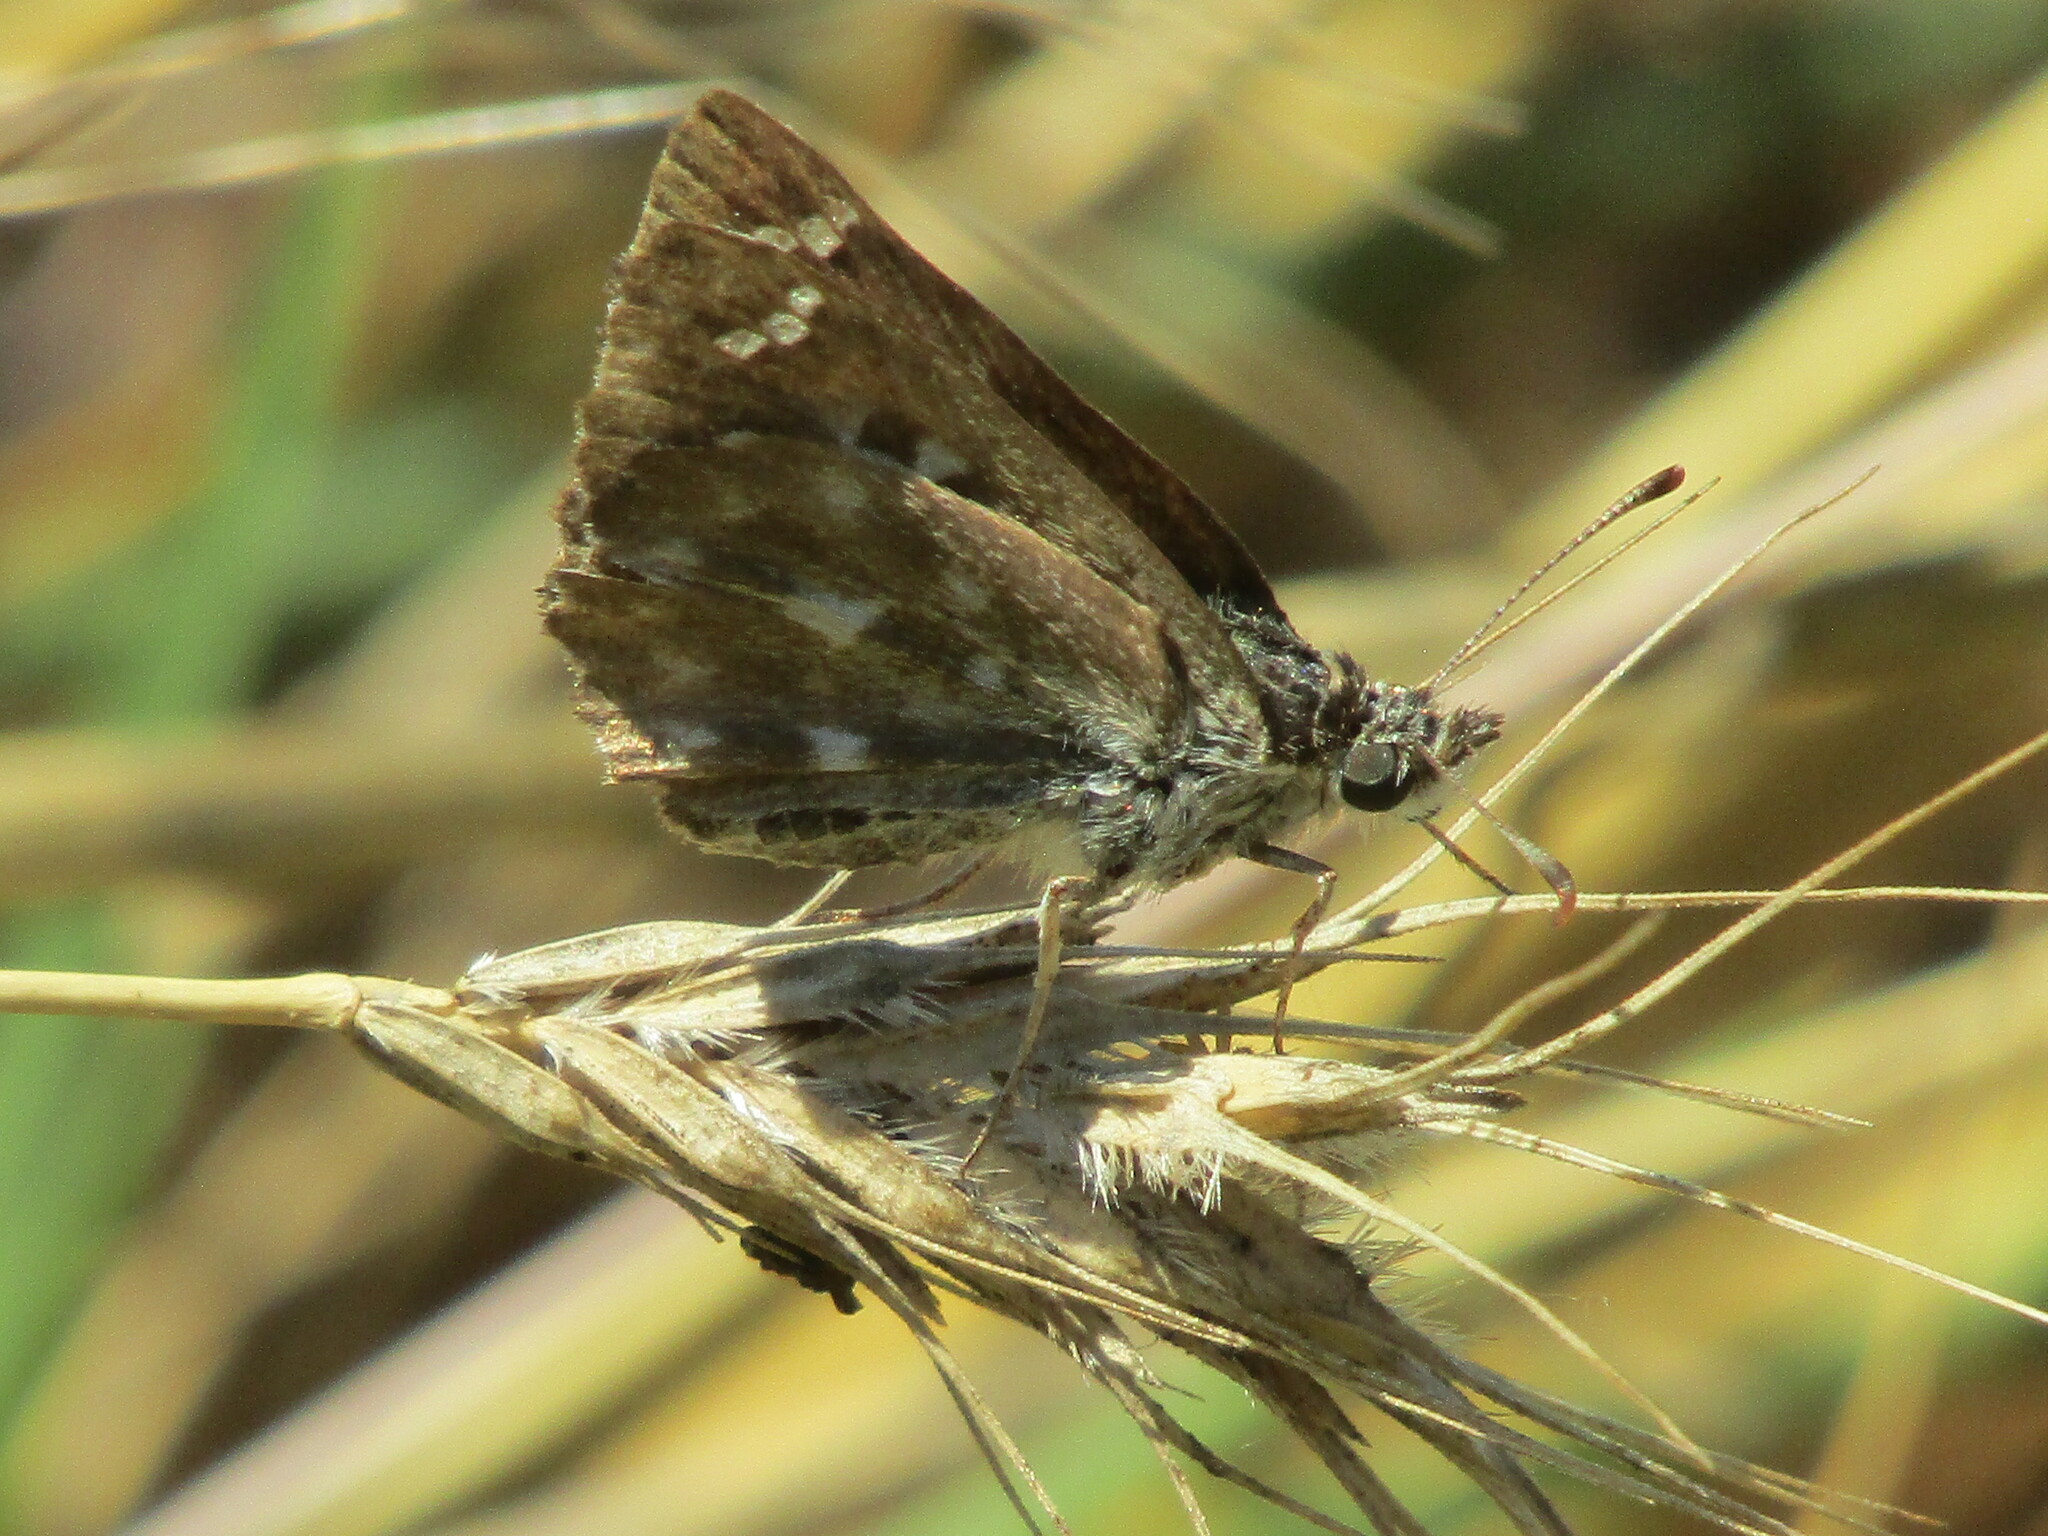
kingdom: Animalia
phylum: Arthropoda
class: Insecta
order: Lepidoptera
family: Hesperiidae
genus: Carcharodus
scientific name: Carcharodus alceae
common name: Mallow skipper
